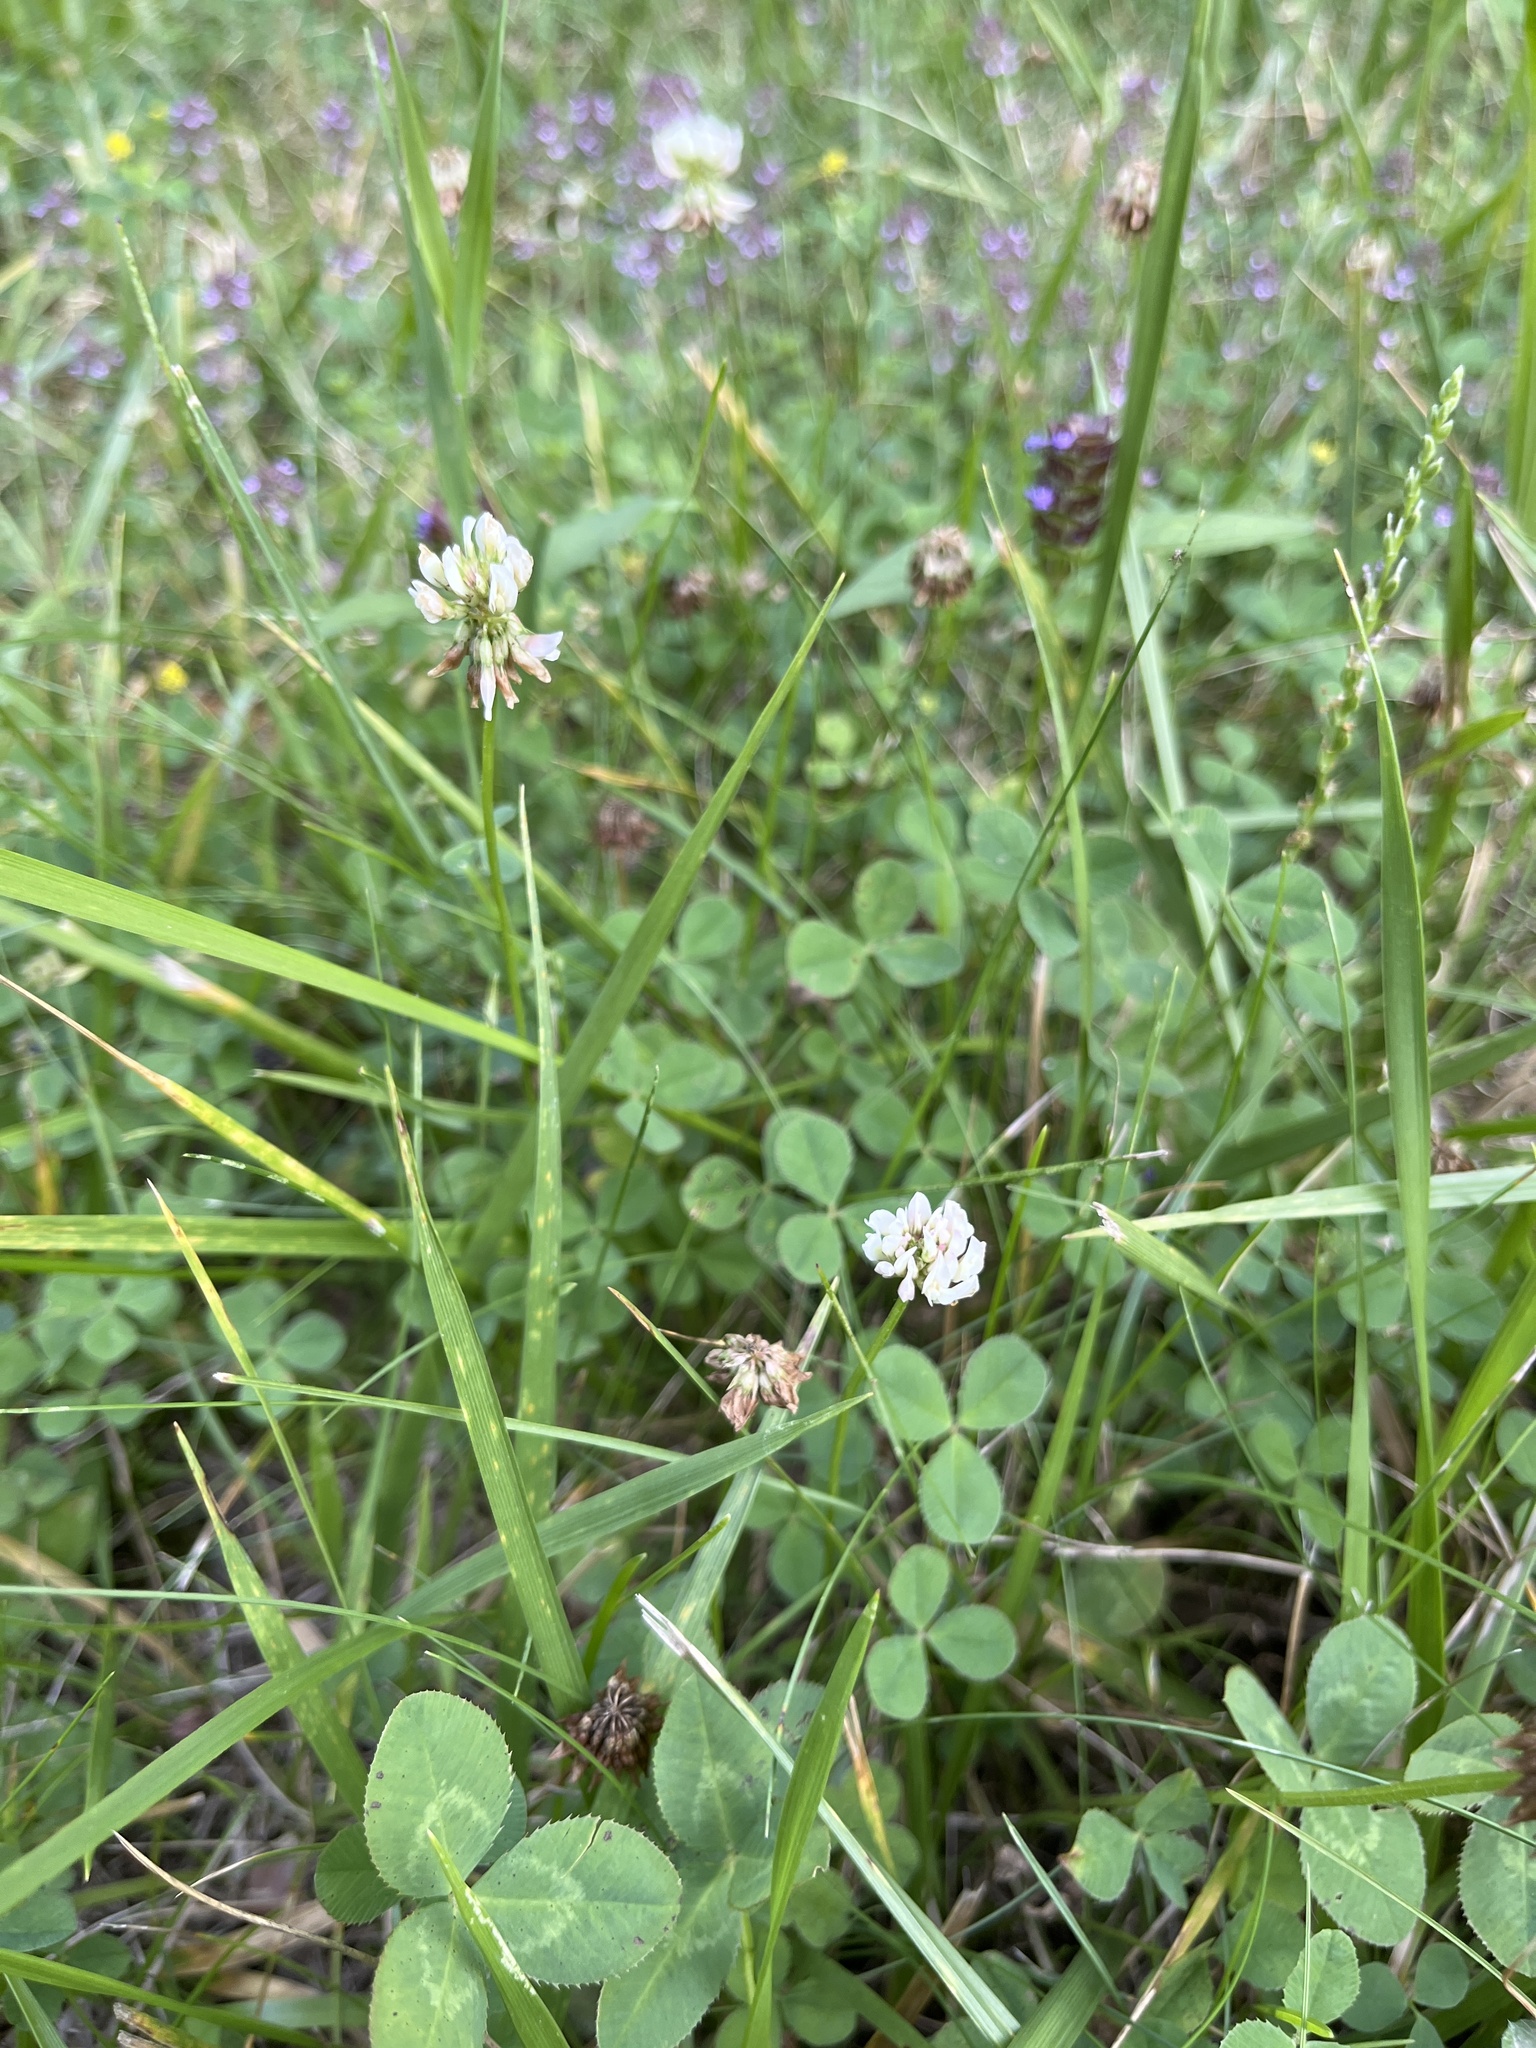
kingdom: Plantae
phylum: Tracheophyta
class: Magnoliopsida
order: Fabales
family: Fabaceae
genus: Trifolium
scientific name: Trifolium repens
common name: White clover
